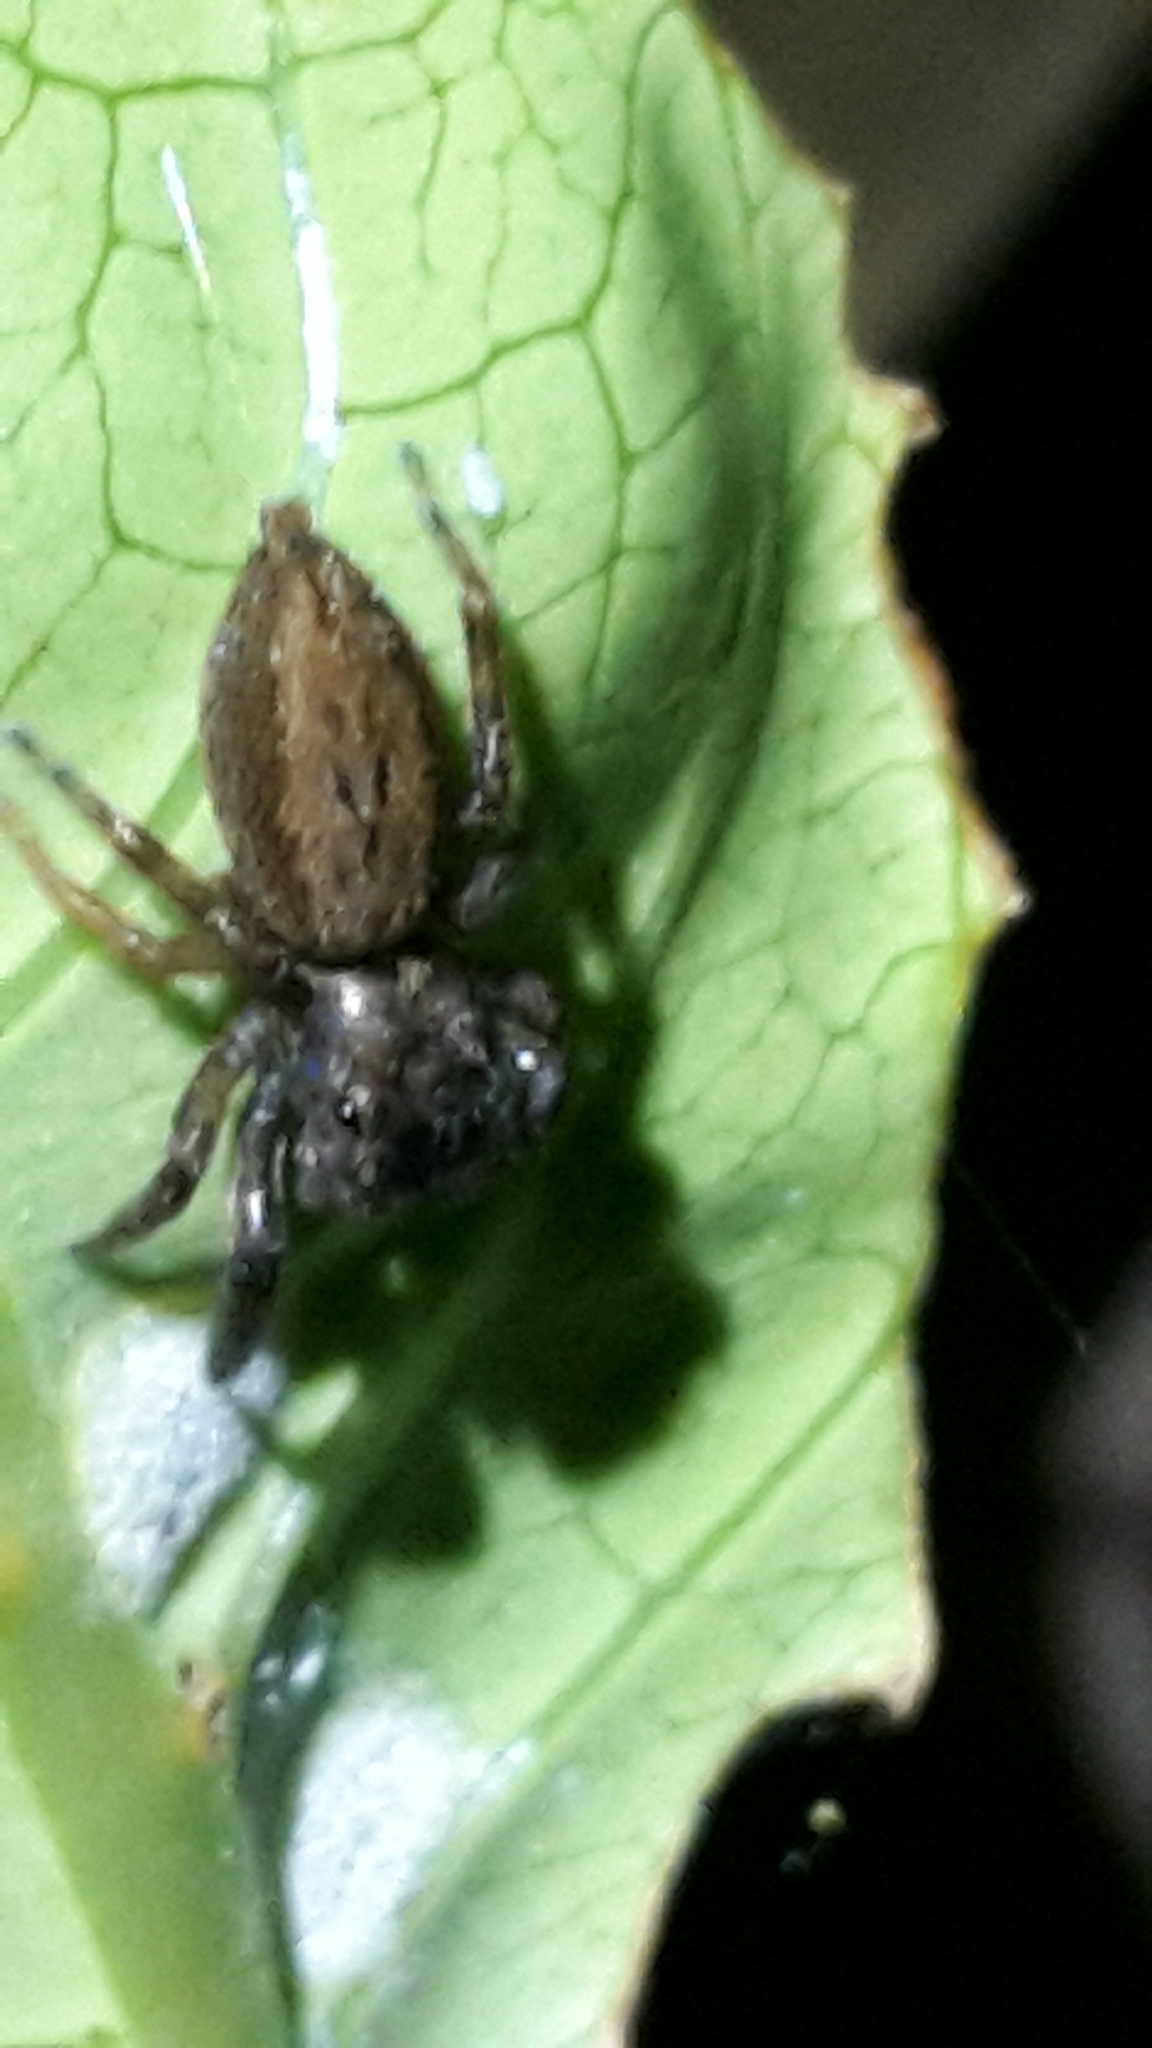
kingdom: Animalia
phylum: Arthropoda
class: Arachnida
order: Araneae
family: Salticidae
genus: Trite
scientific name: Trite auricoma
